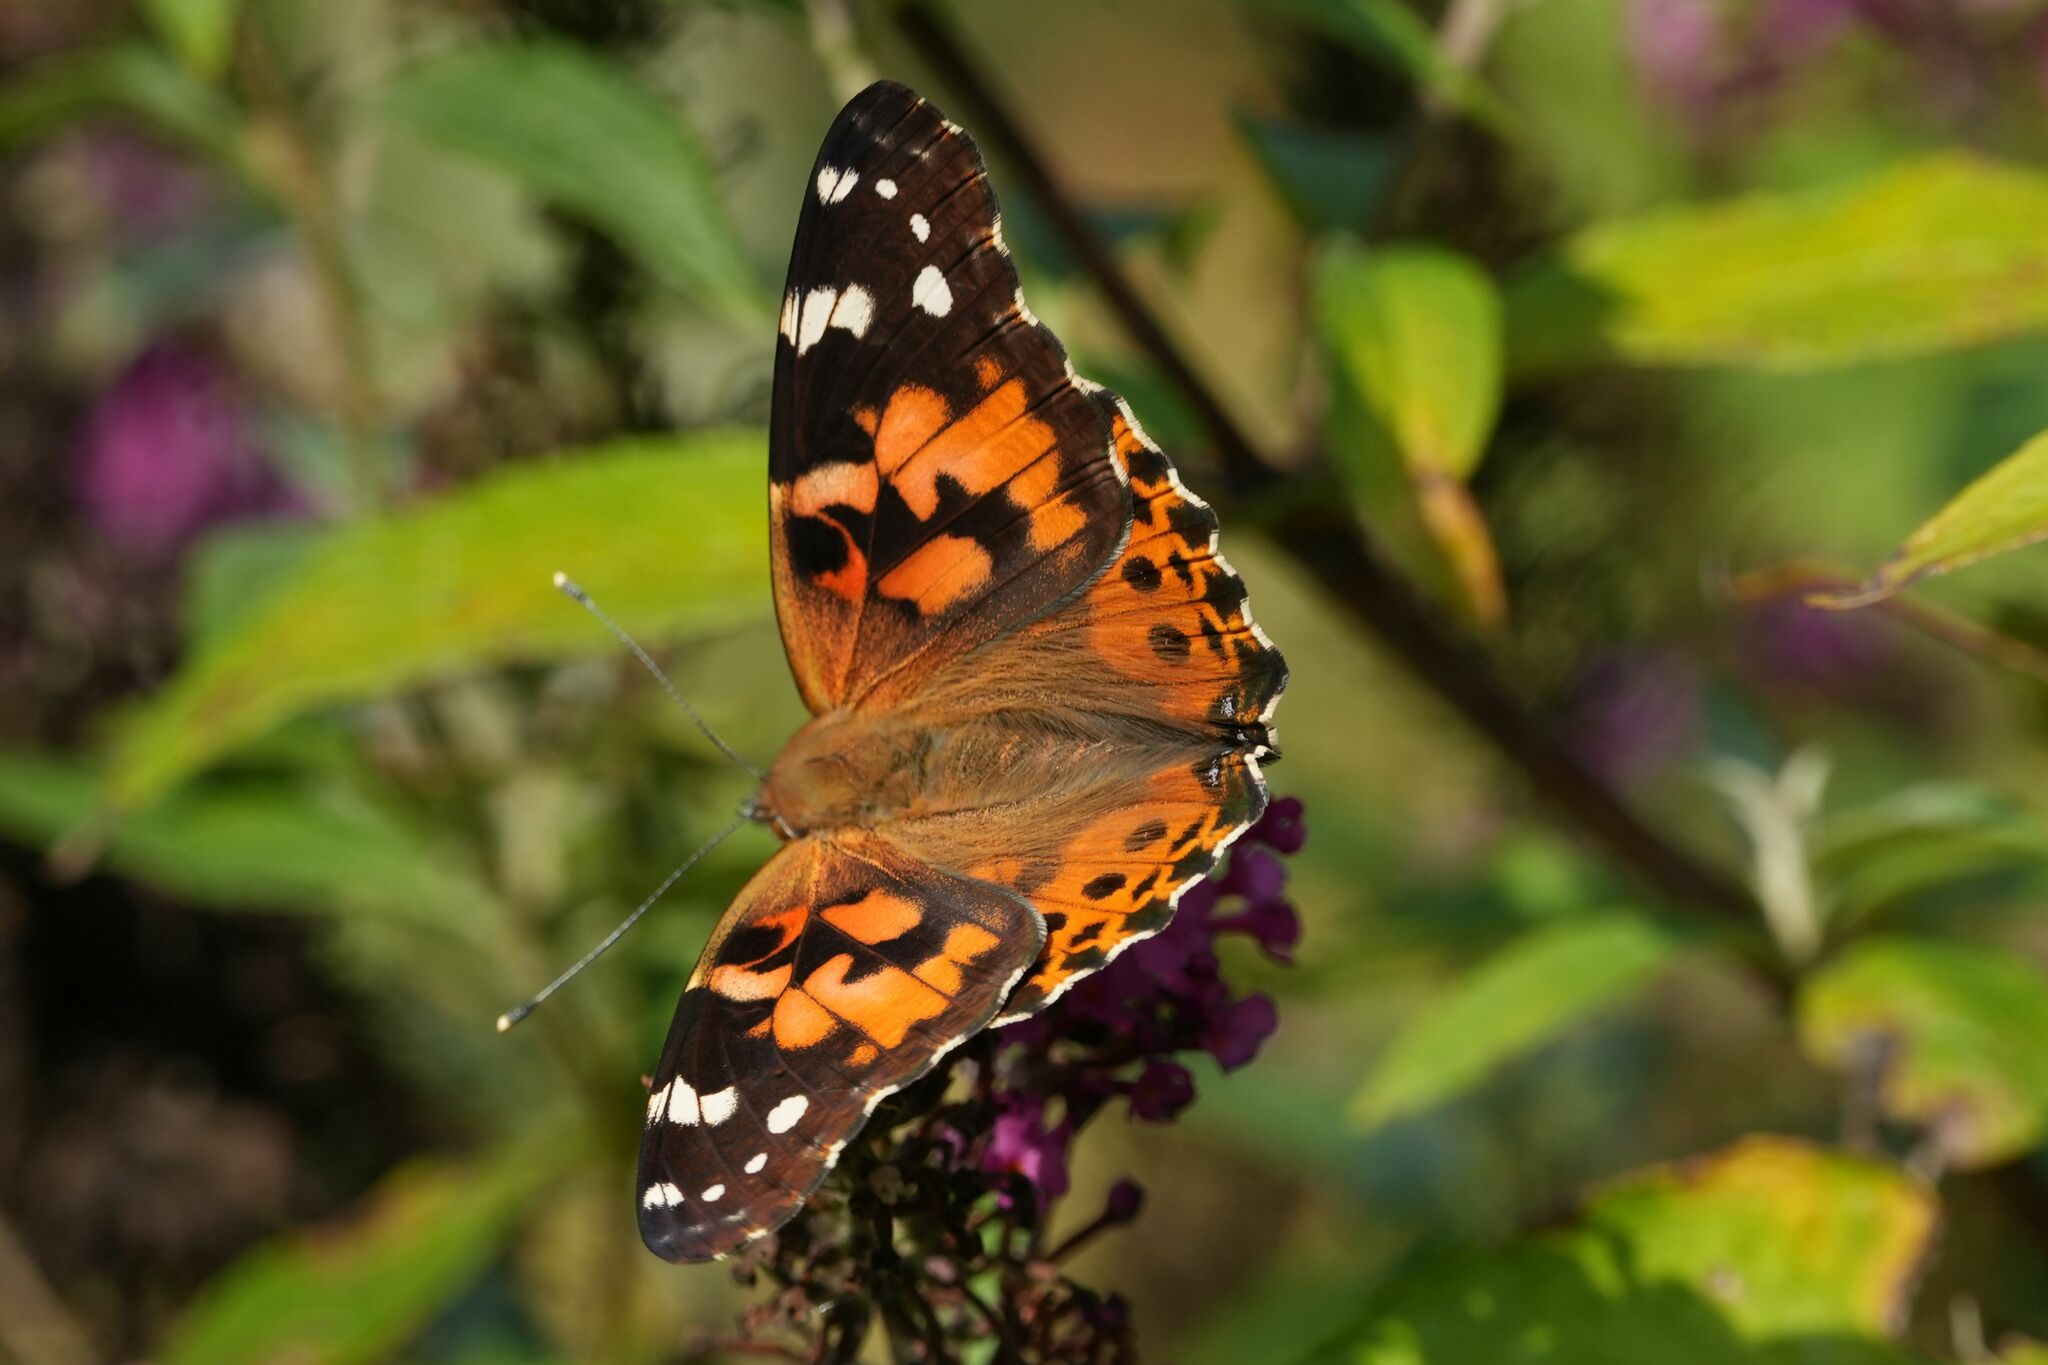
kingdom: Animalia
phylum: Arthropoda
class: Insecta
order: Lepidoptera
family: Nymphalidae
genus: Vanessa
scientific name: Vanessa cardui
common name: Painted lady
